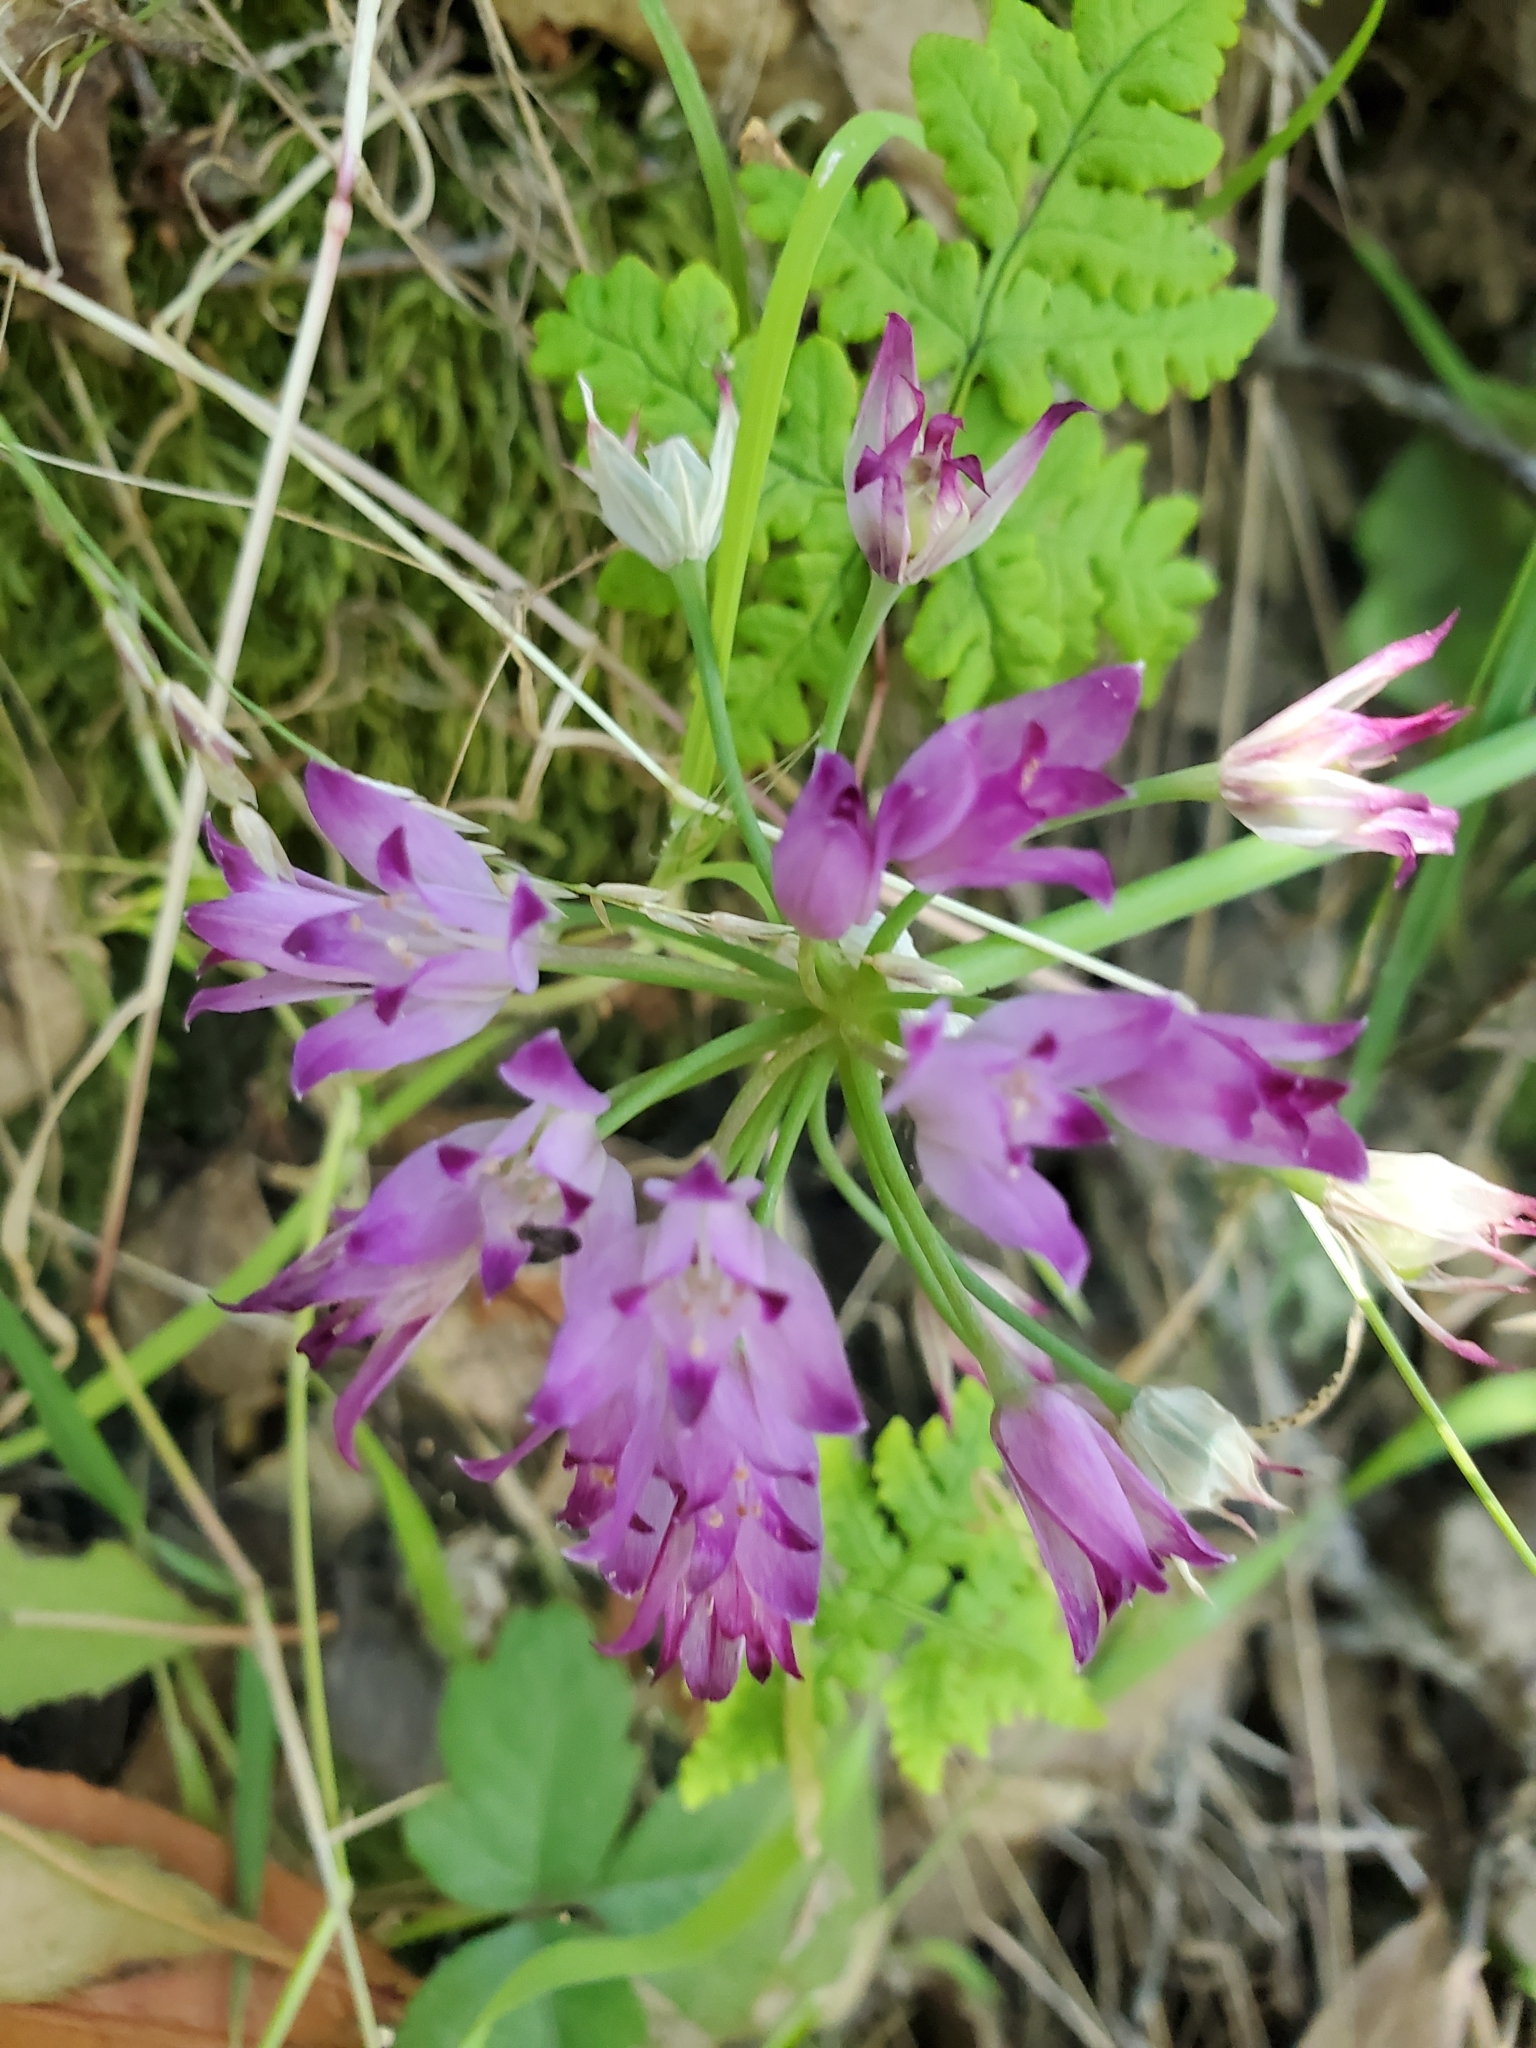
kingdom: Plantae
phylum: Tracheophyta
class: Liliopsida
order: Asparagales
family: Amaryllidaceae
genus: Allium
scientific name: Allium peninsulare
